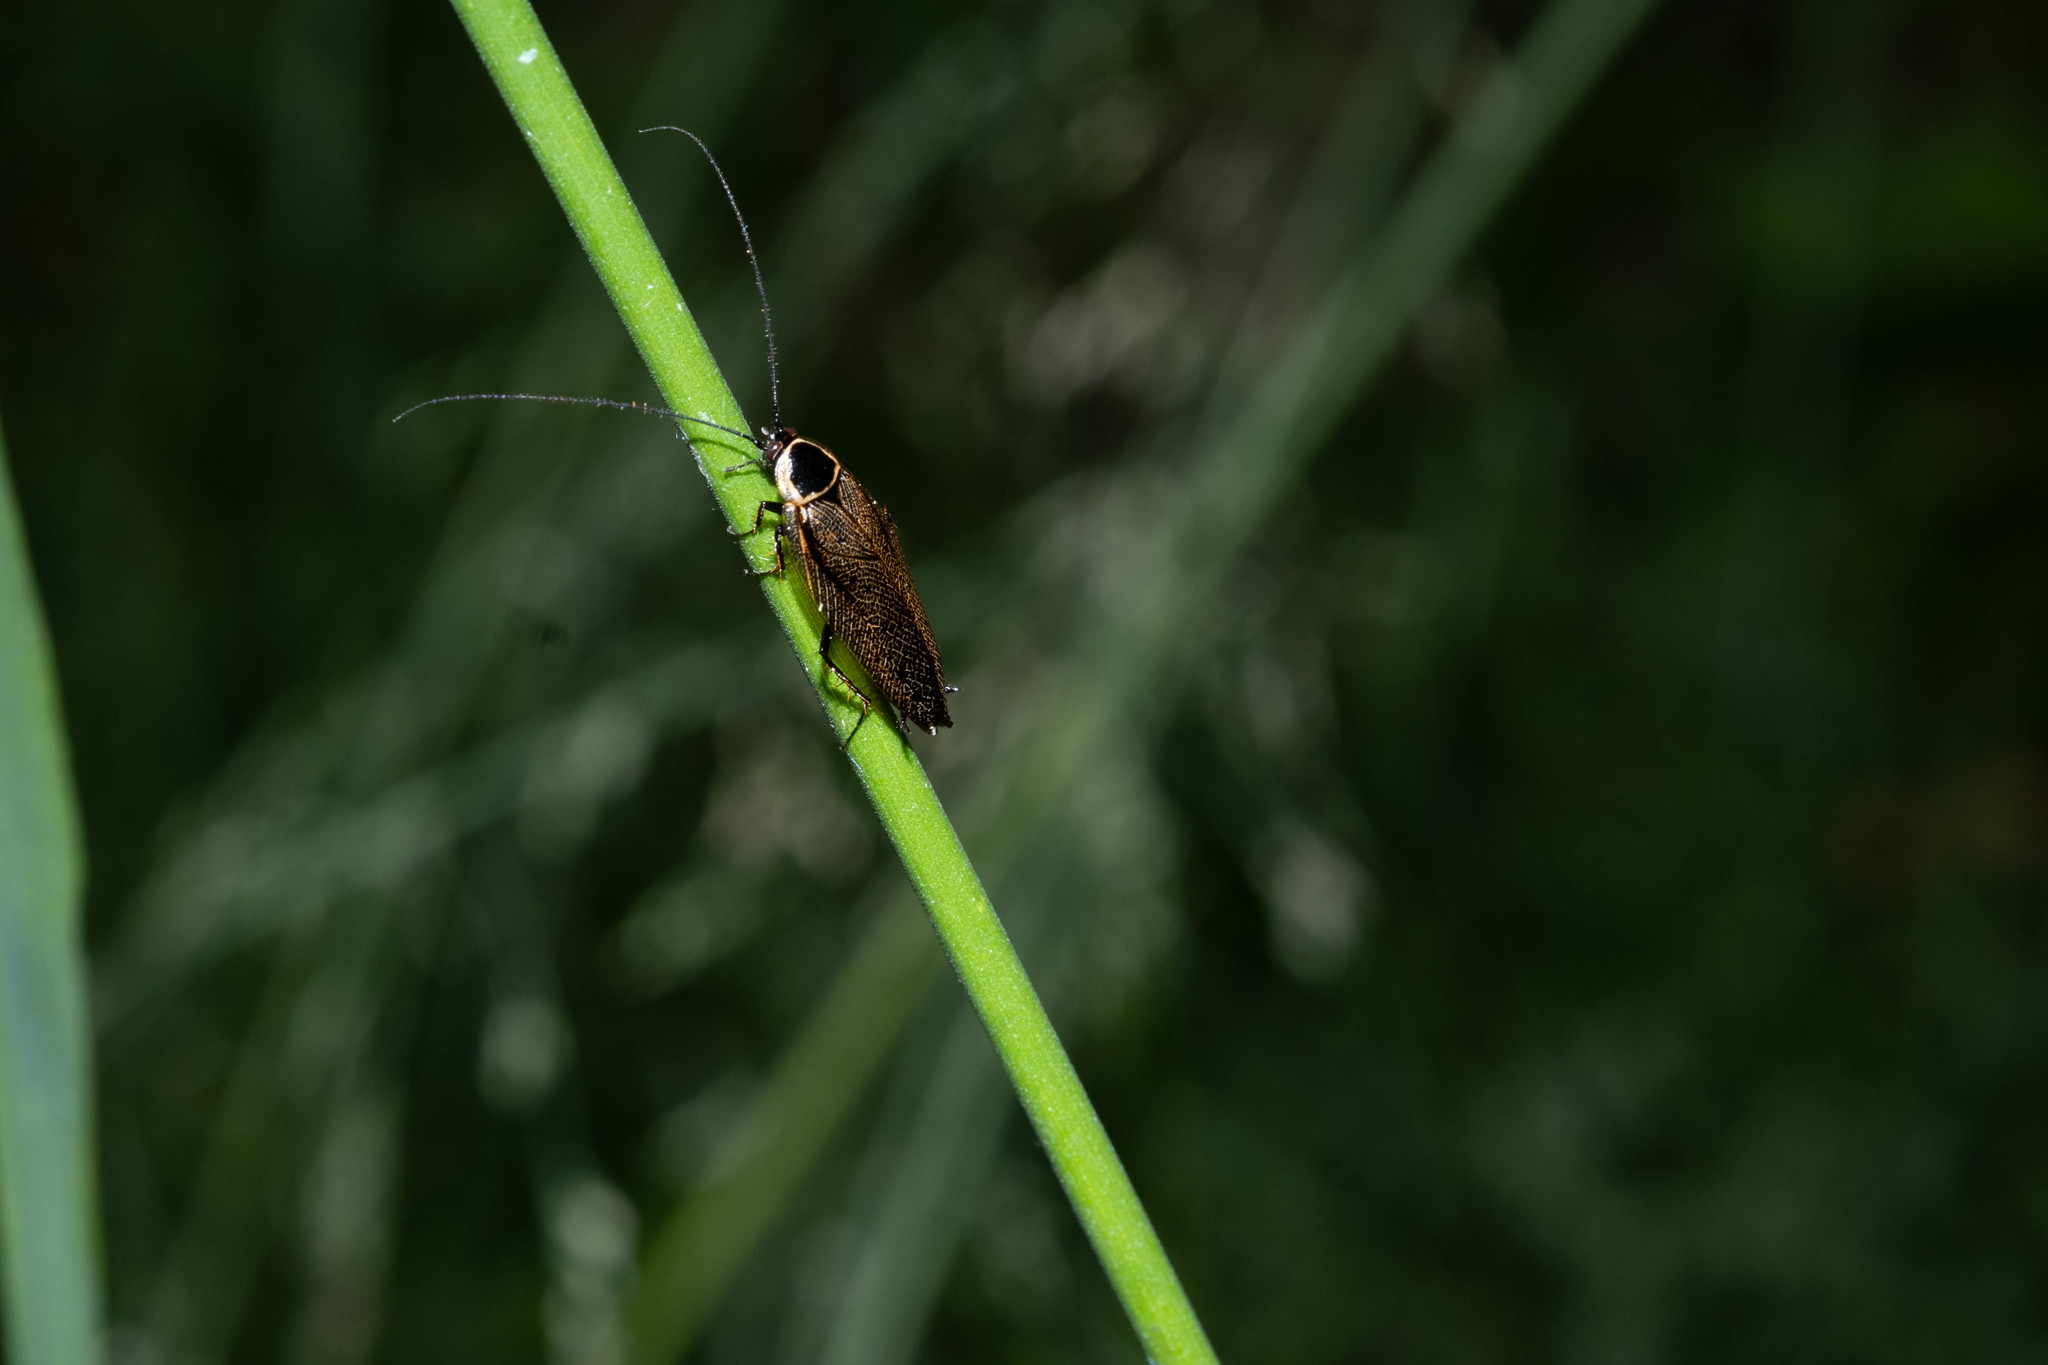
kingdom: Animalia
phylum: Arthropoda
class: Insecta
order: Blattodea
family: Ectobiidae
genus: Ectobius
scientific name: Ectobius sylvestris
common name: Forest cockroach
